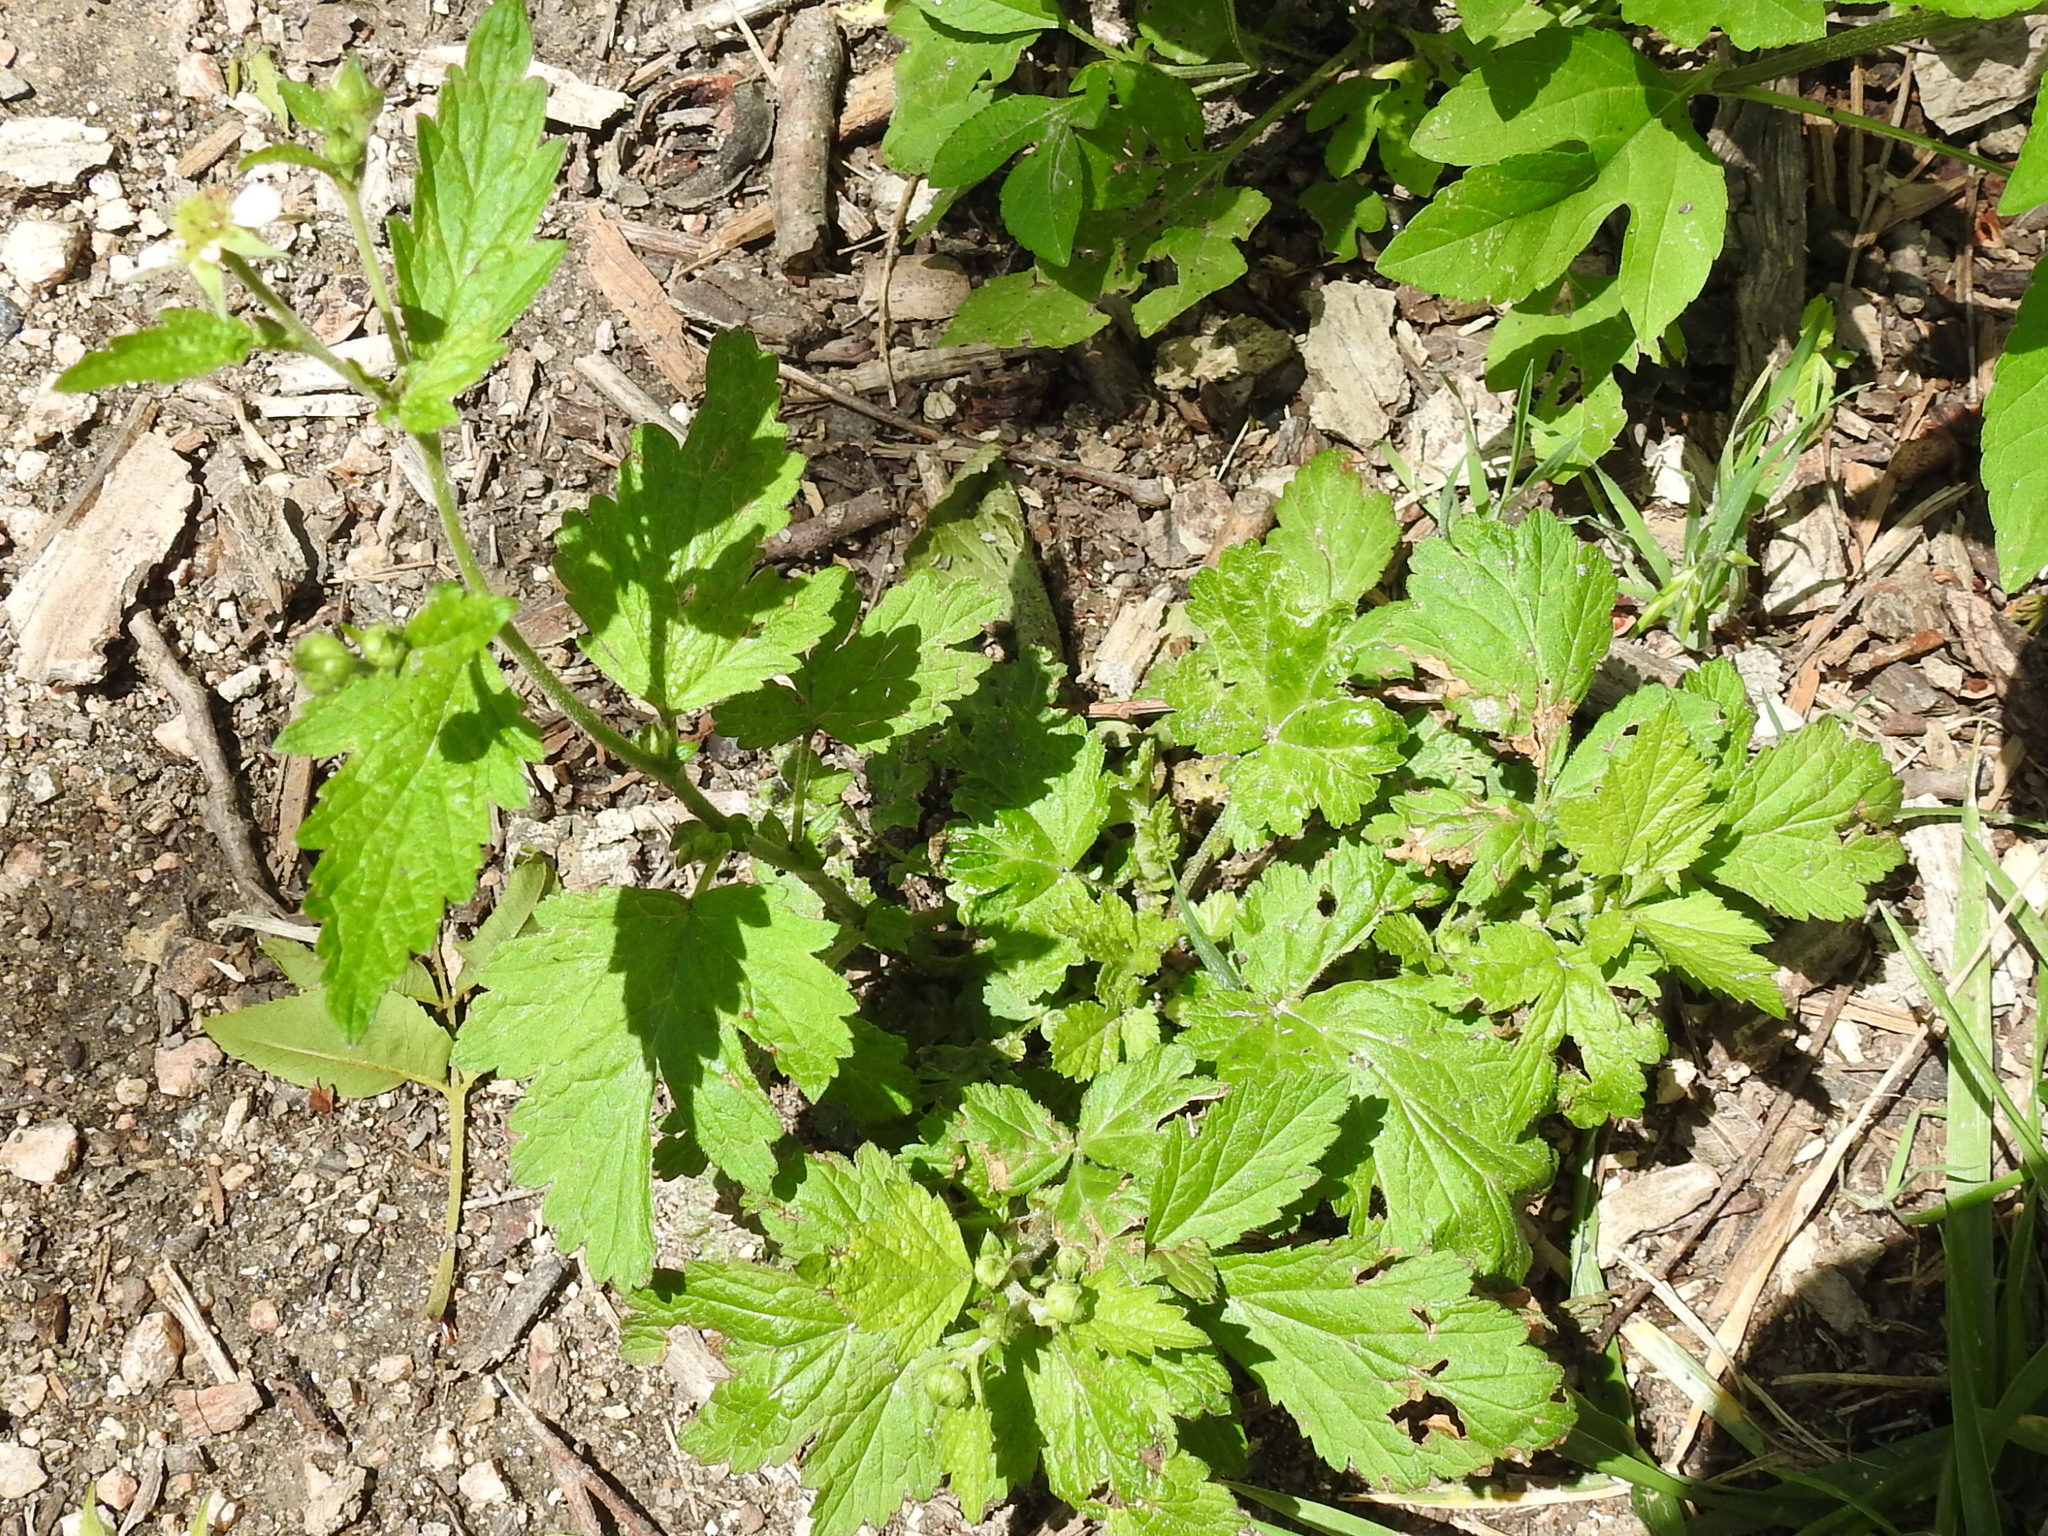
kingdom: Plantae
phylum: Tracheophyta
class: Magnoliopsida
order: Rosales
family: Rosaceae
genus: Geum
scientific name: Geum canadense
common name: White avens
